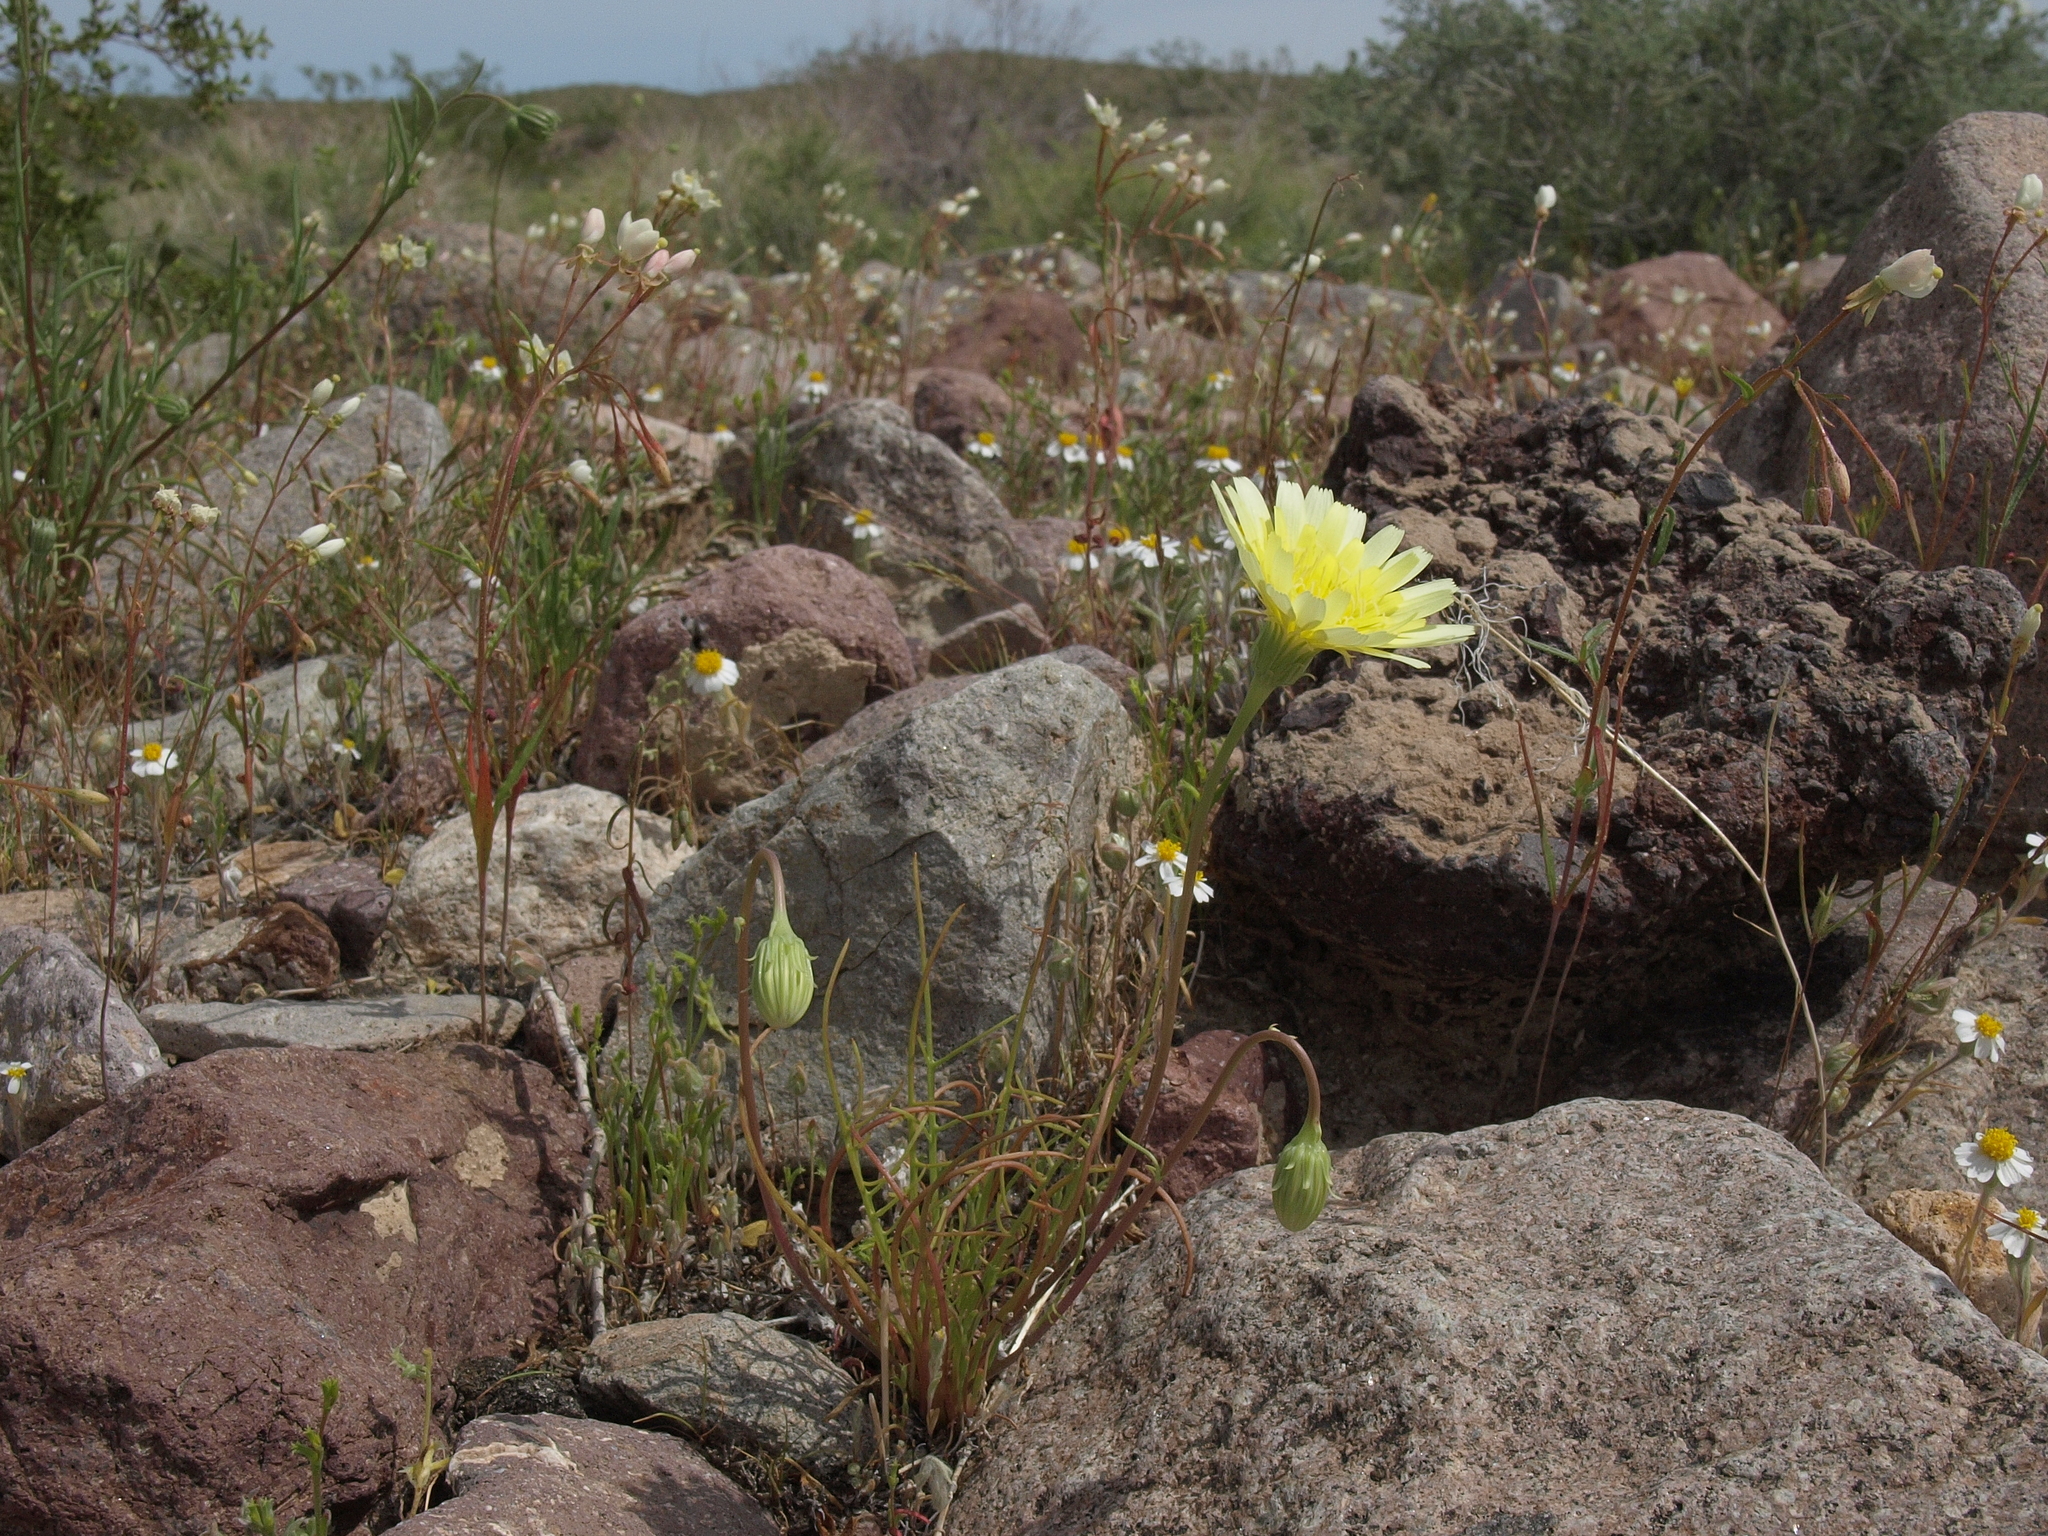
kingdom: Plantae
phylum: Tracheophyta
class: Magnoliopsida
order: Asterales
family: Asteraceae
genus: Malacothrix
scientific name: Malacothrix glabrata
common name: Smooth desert-dandelion
